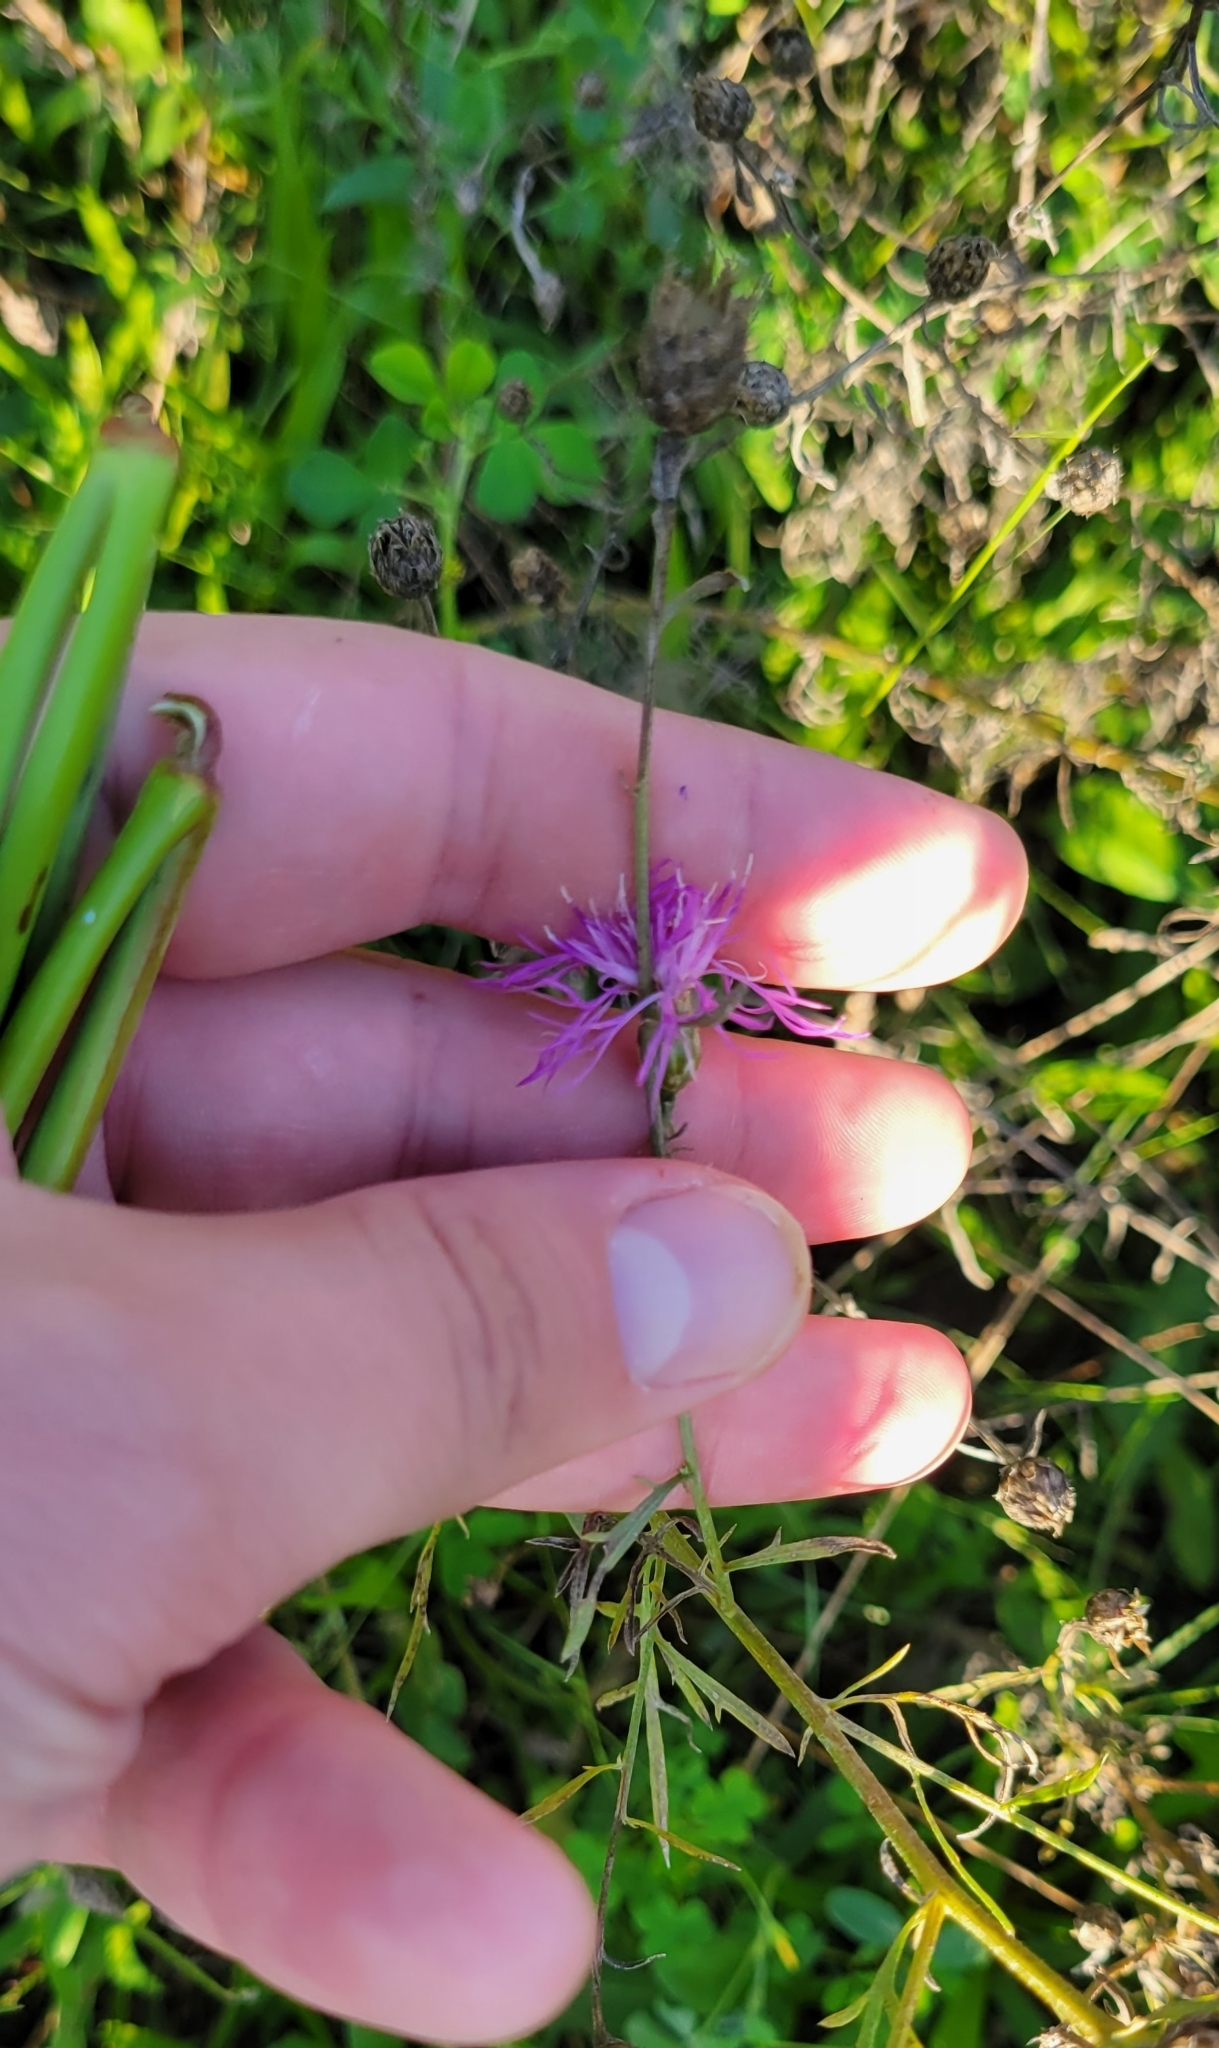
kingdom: Plantae
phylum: Tracheophyta
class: Magnoliopsida
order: Asterales
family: Asteraceae
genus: Centaurea
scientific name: Centaurea stoebe
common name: Spotted knapweed
